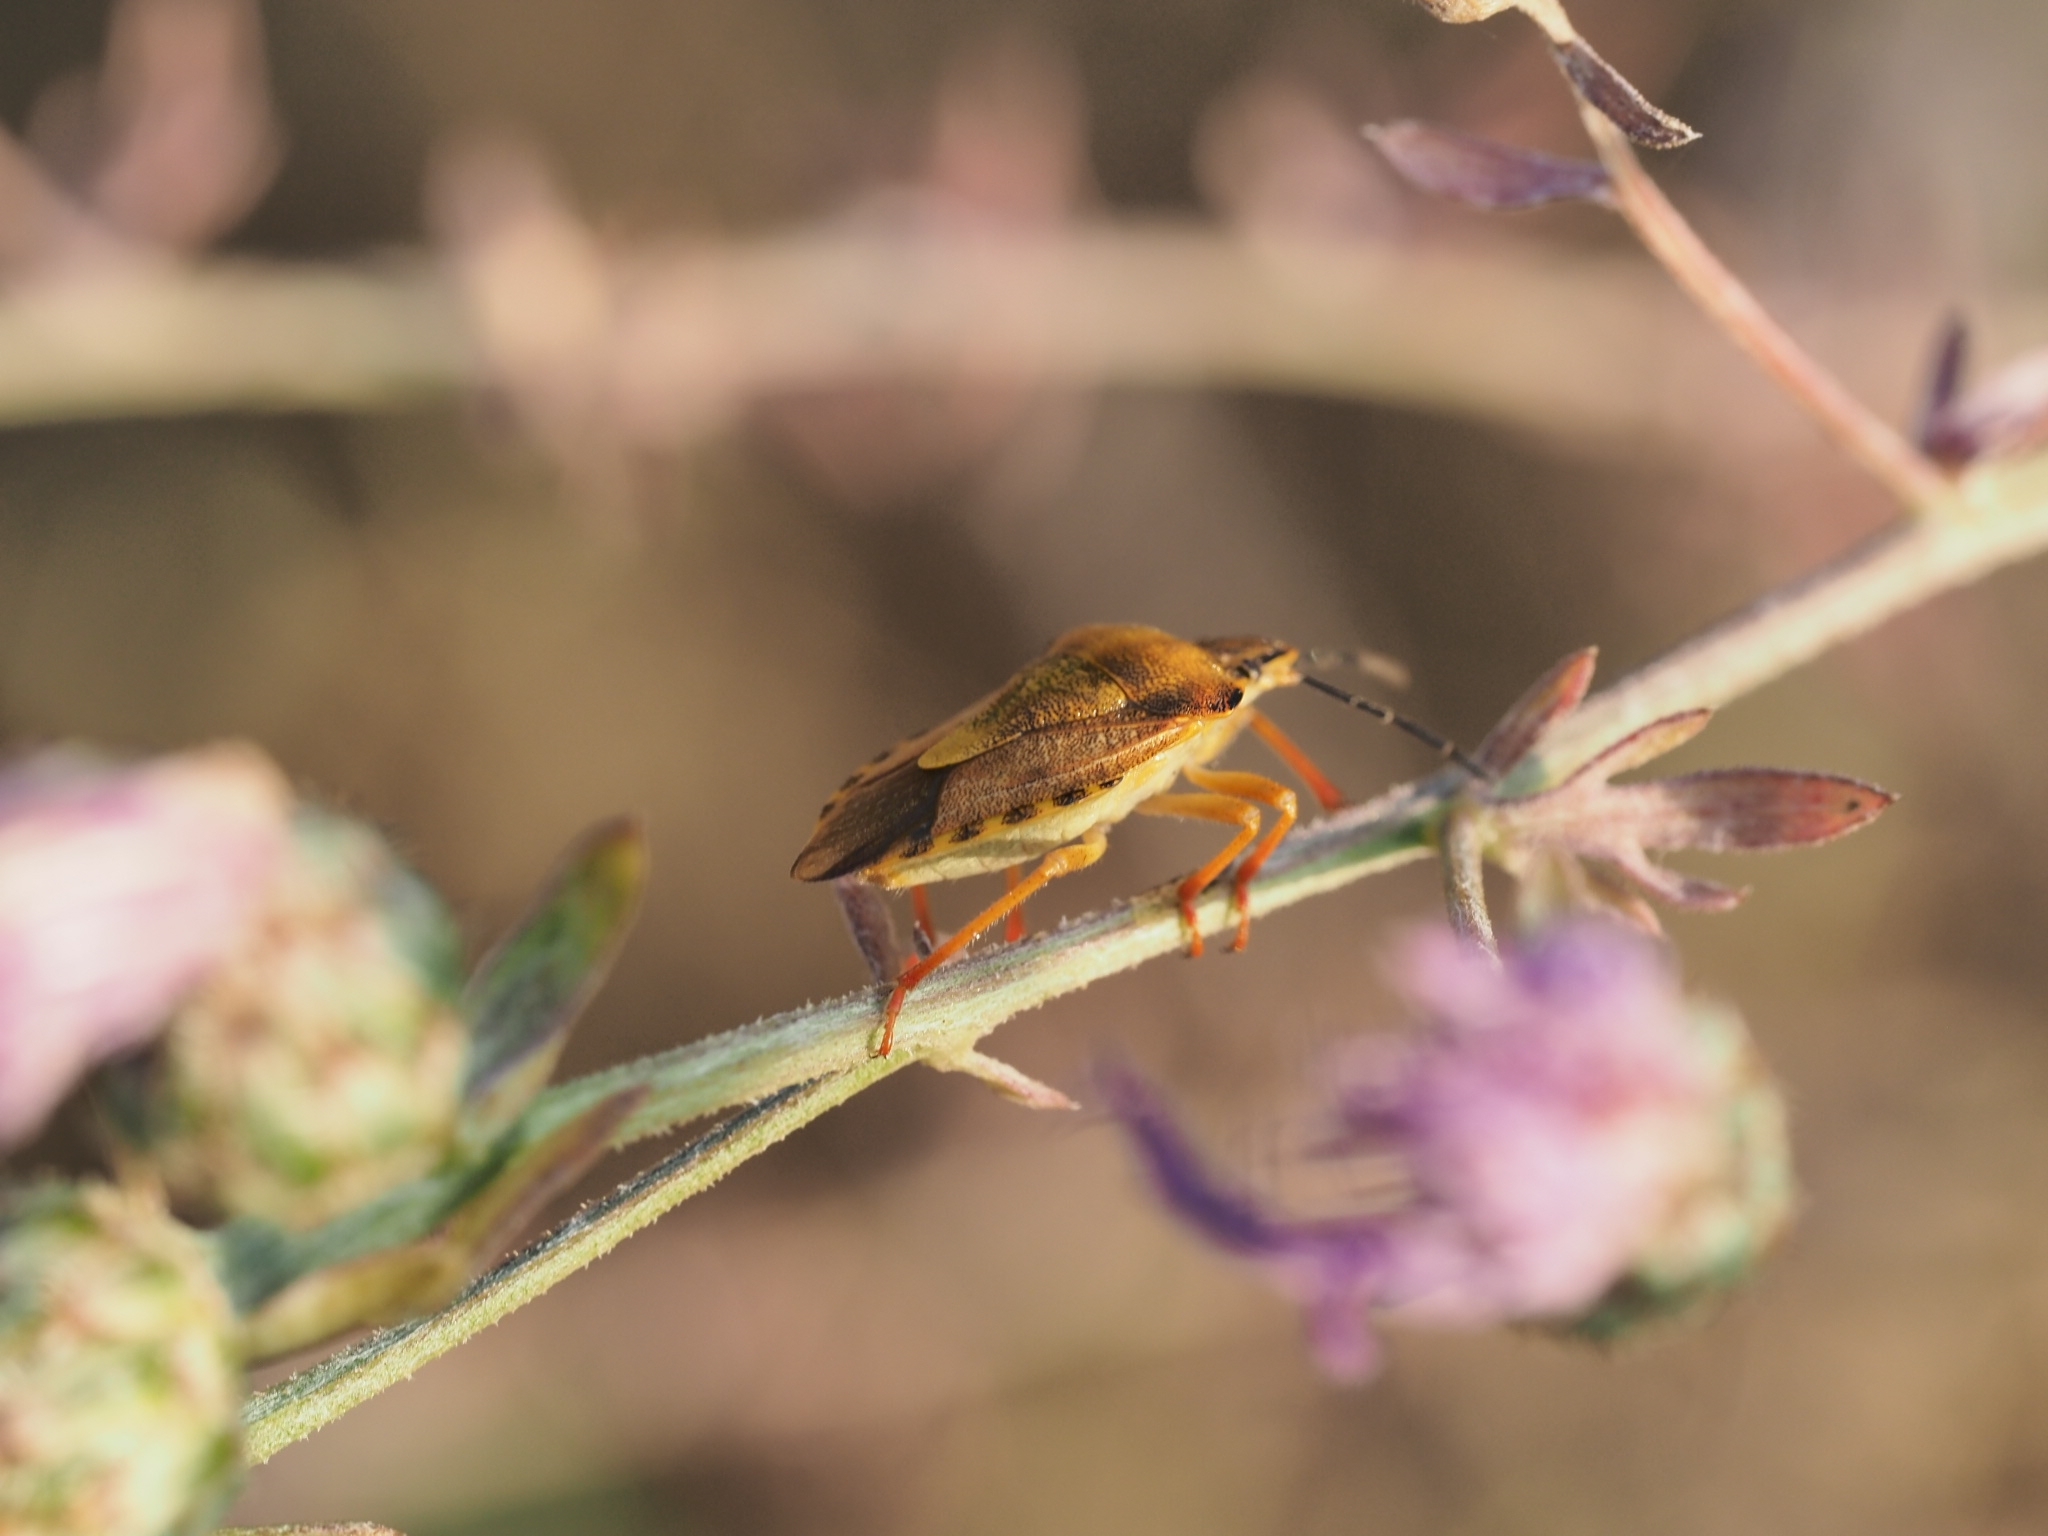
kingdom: Animalia
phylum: Arthropoda
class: Insecta
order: Hemiptera
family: Pentatomidae
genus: Carpocoris
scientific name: Carpocoris purpureipennis
